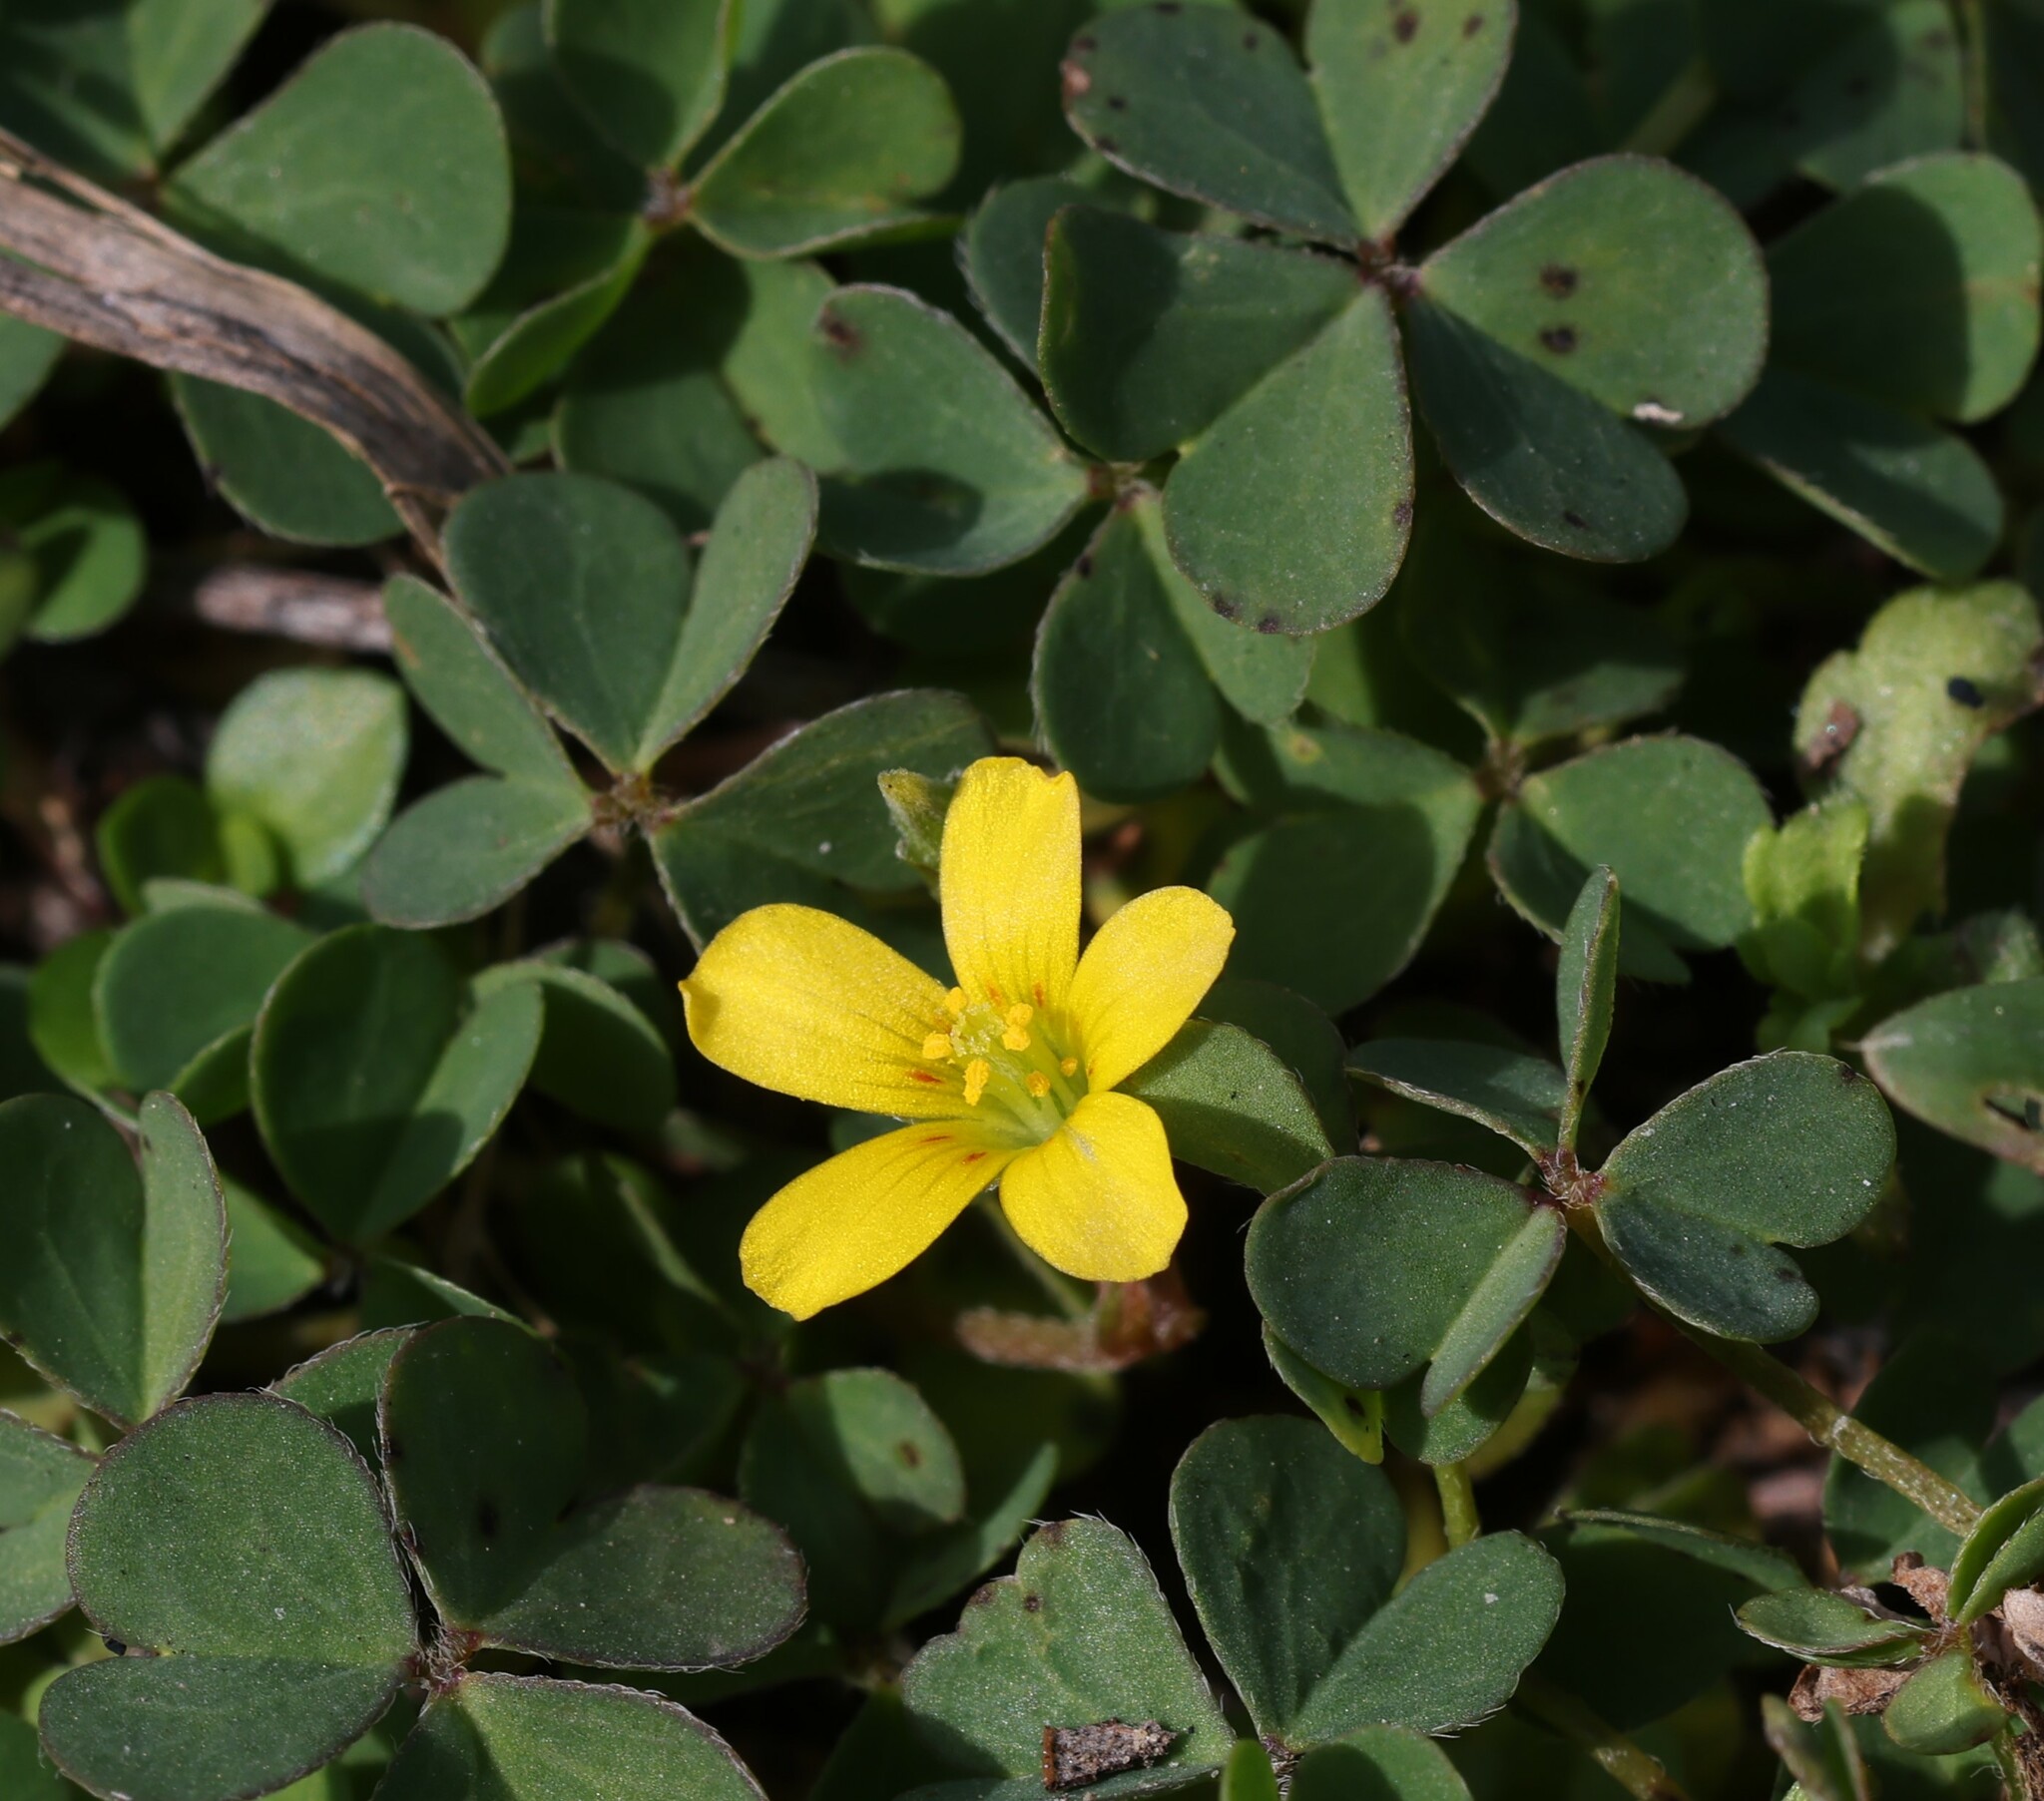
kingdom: Plantae
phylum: Tracheophyta
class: Magnoliopsida
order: Oxalidales
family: Oxalidaceae
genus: Oxalis
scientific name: Oxalis corniculata
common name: Procumbent yellow-sorrel
